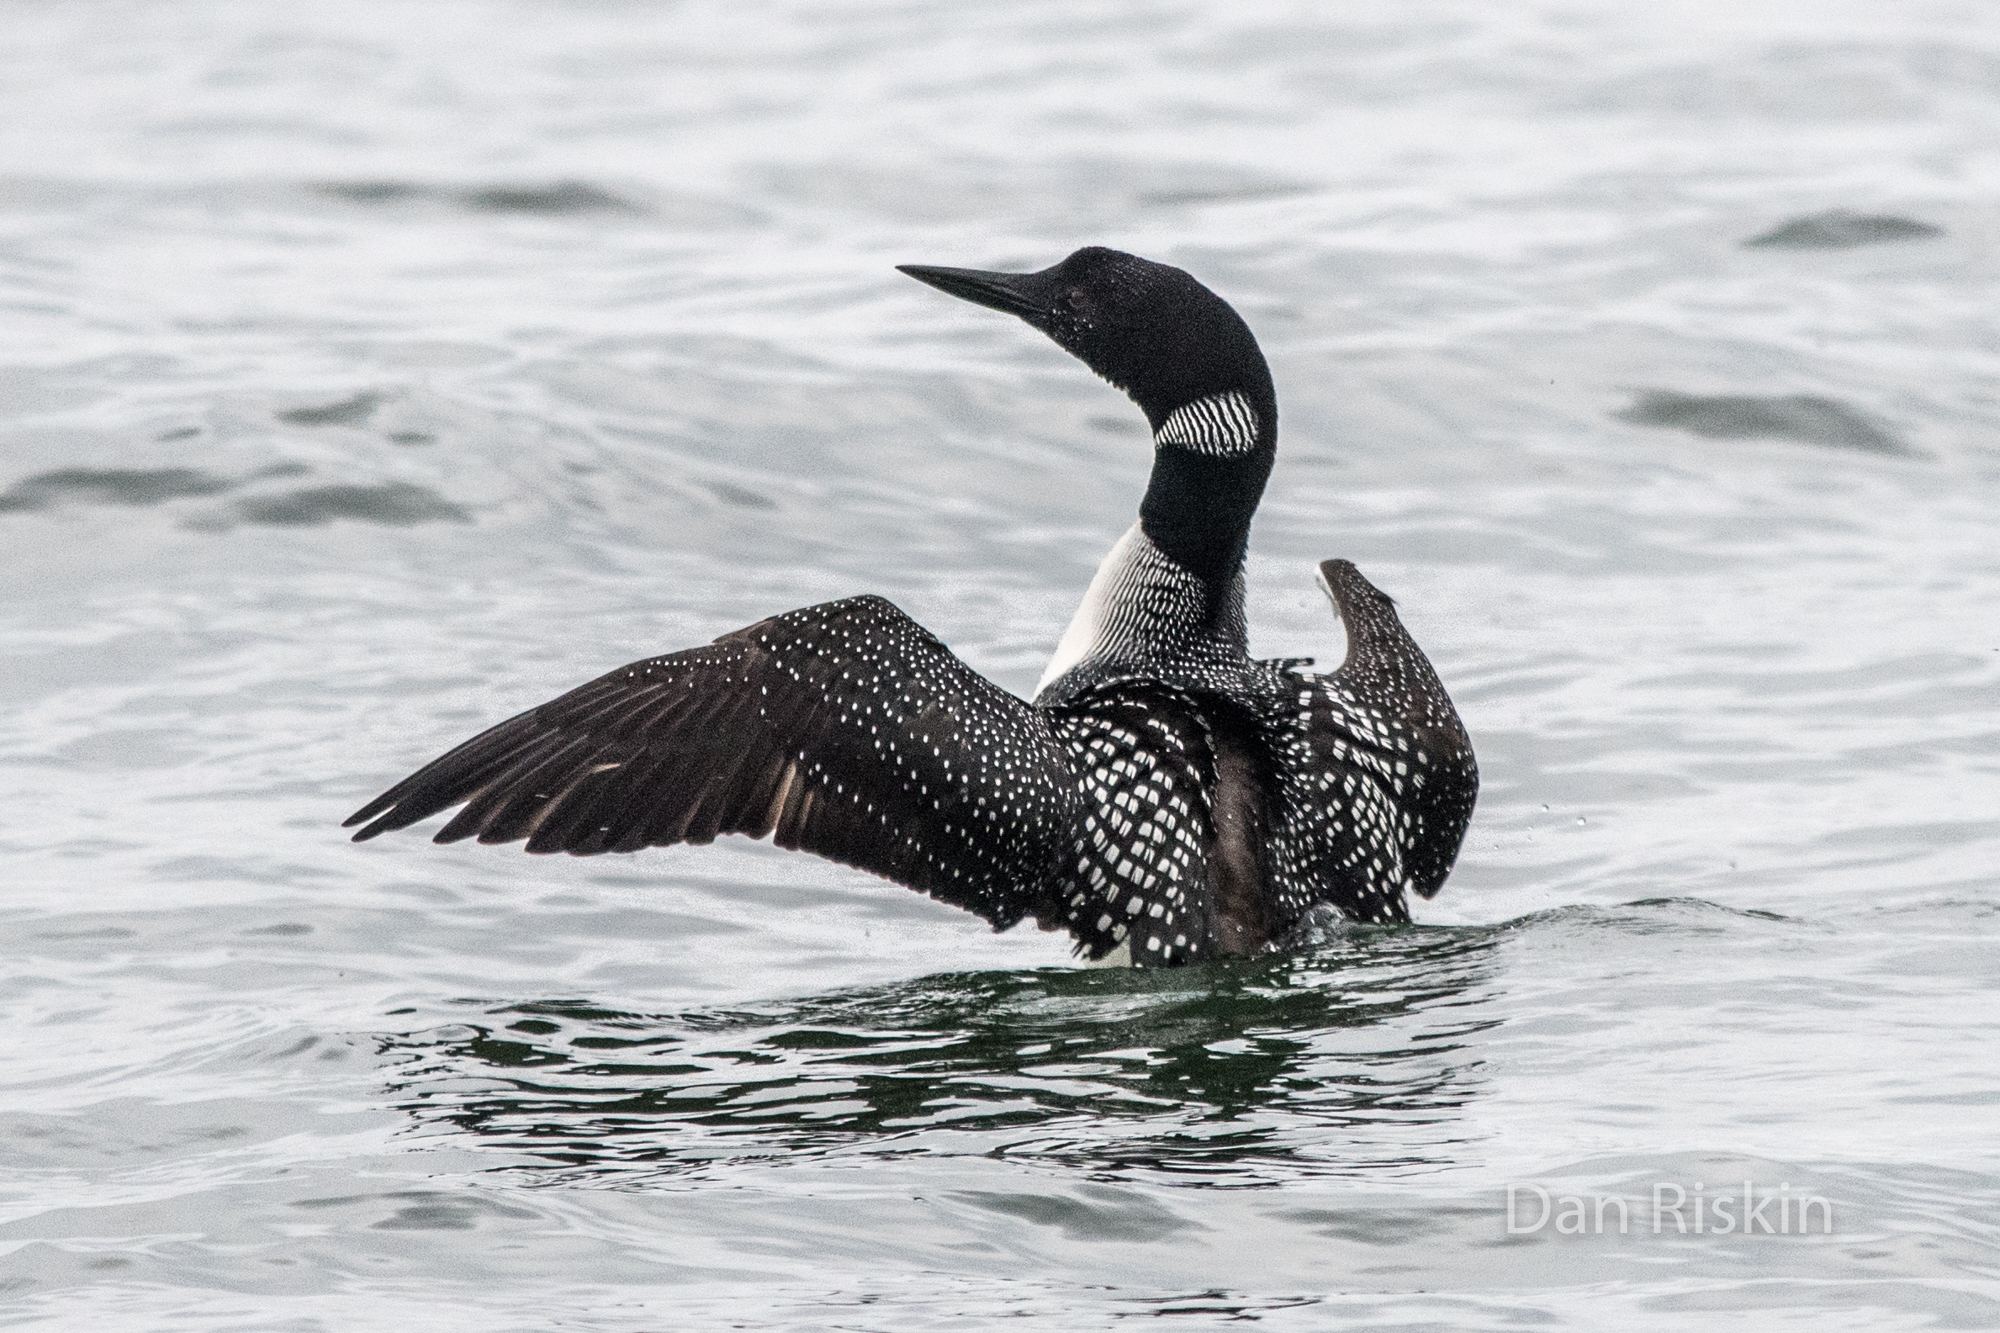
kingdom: Animalia
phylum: Chordata
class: Aves
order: Gaviiformes
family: Gaviidae
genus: Gavia
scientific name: Gavia immer
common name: Common loon
